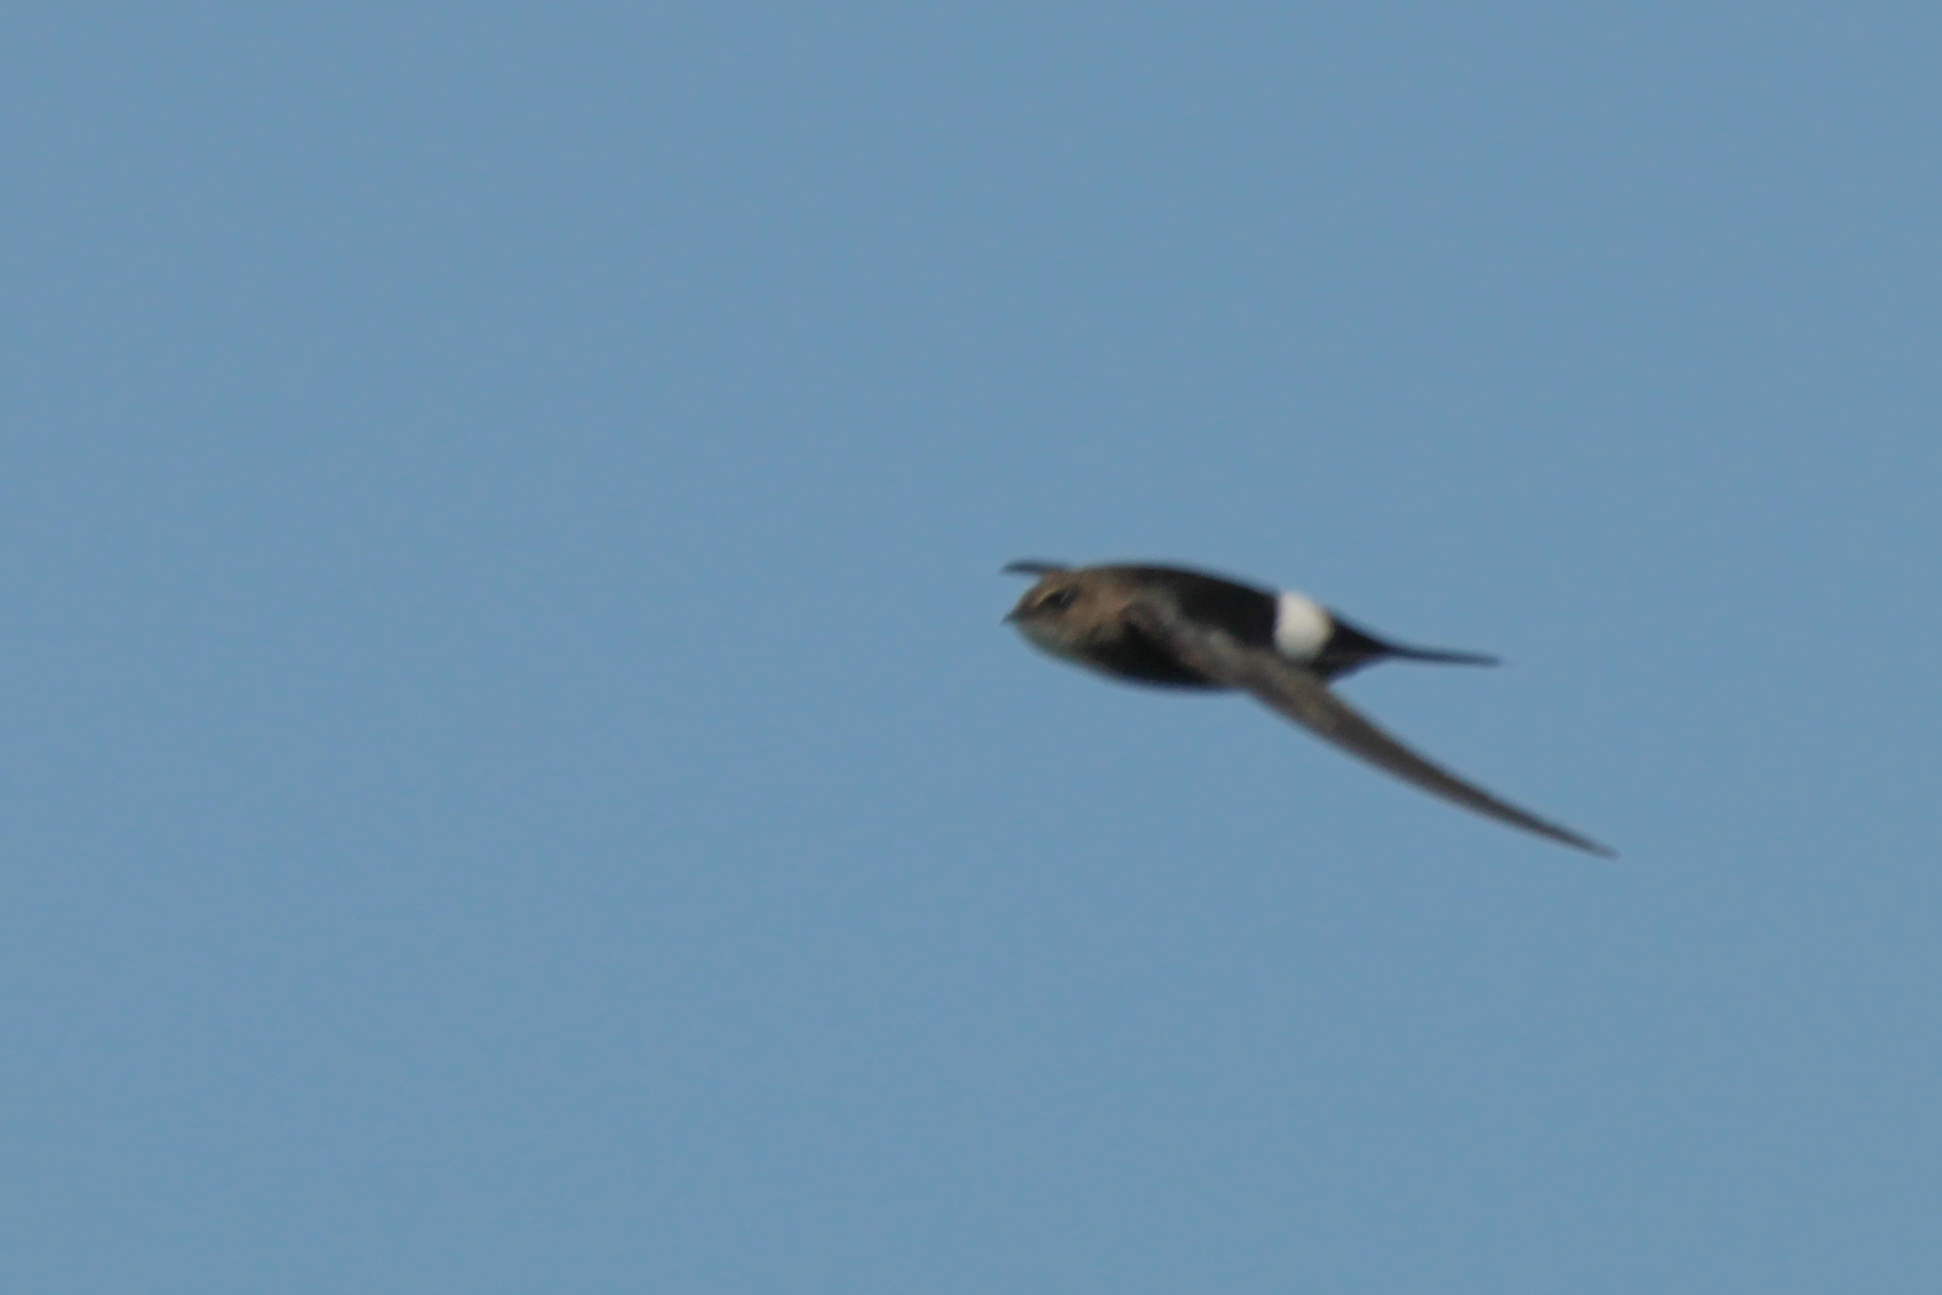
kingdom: Animalia
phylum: Chordata
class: Aves
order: Apodiformes
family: Apodidae
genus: Apus
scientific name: Apus pacificus
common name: Pacific swift
